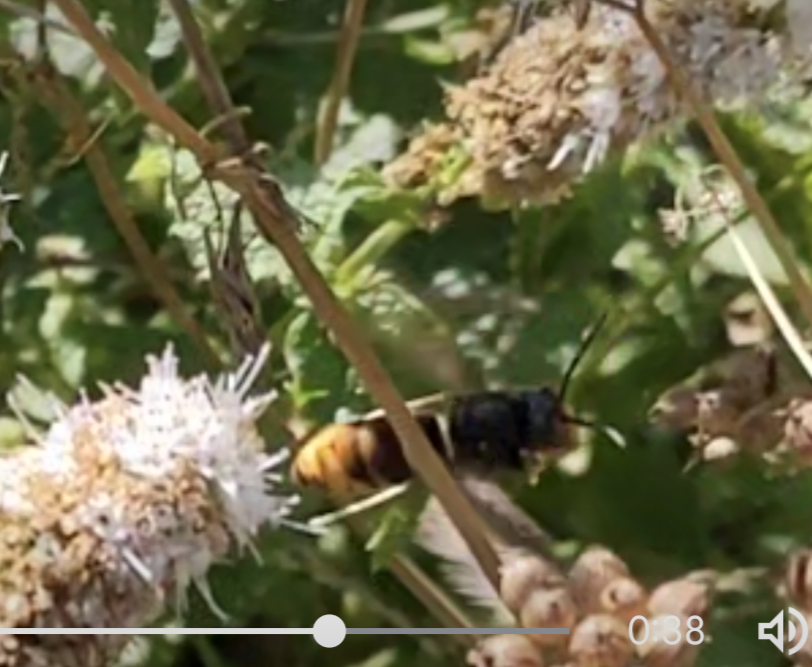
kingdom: Animalia
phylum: Arthropoda
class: Insecta
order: Hymenoptera
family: Vespidae
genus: Vespa
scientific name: Vespa velutina
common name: Asian hornet
